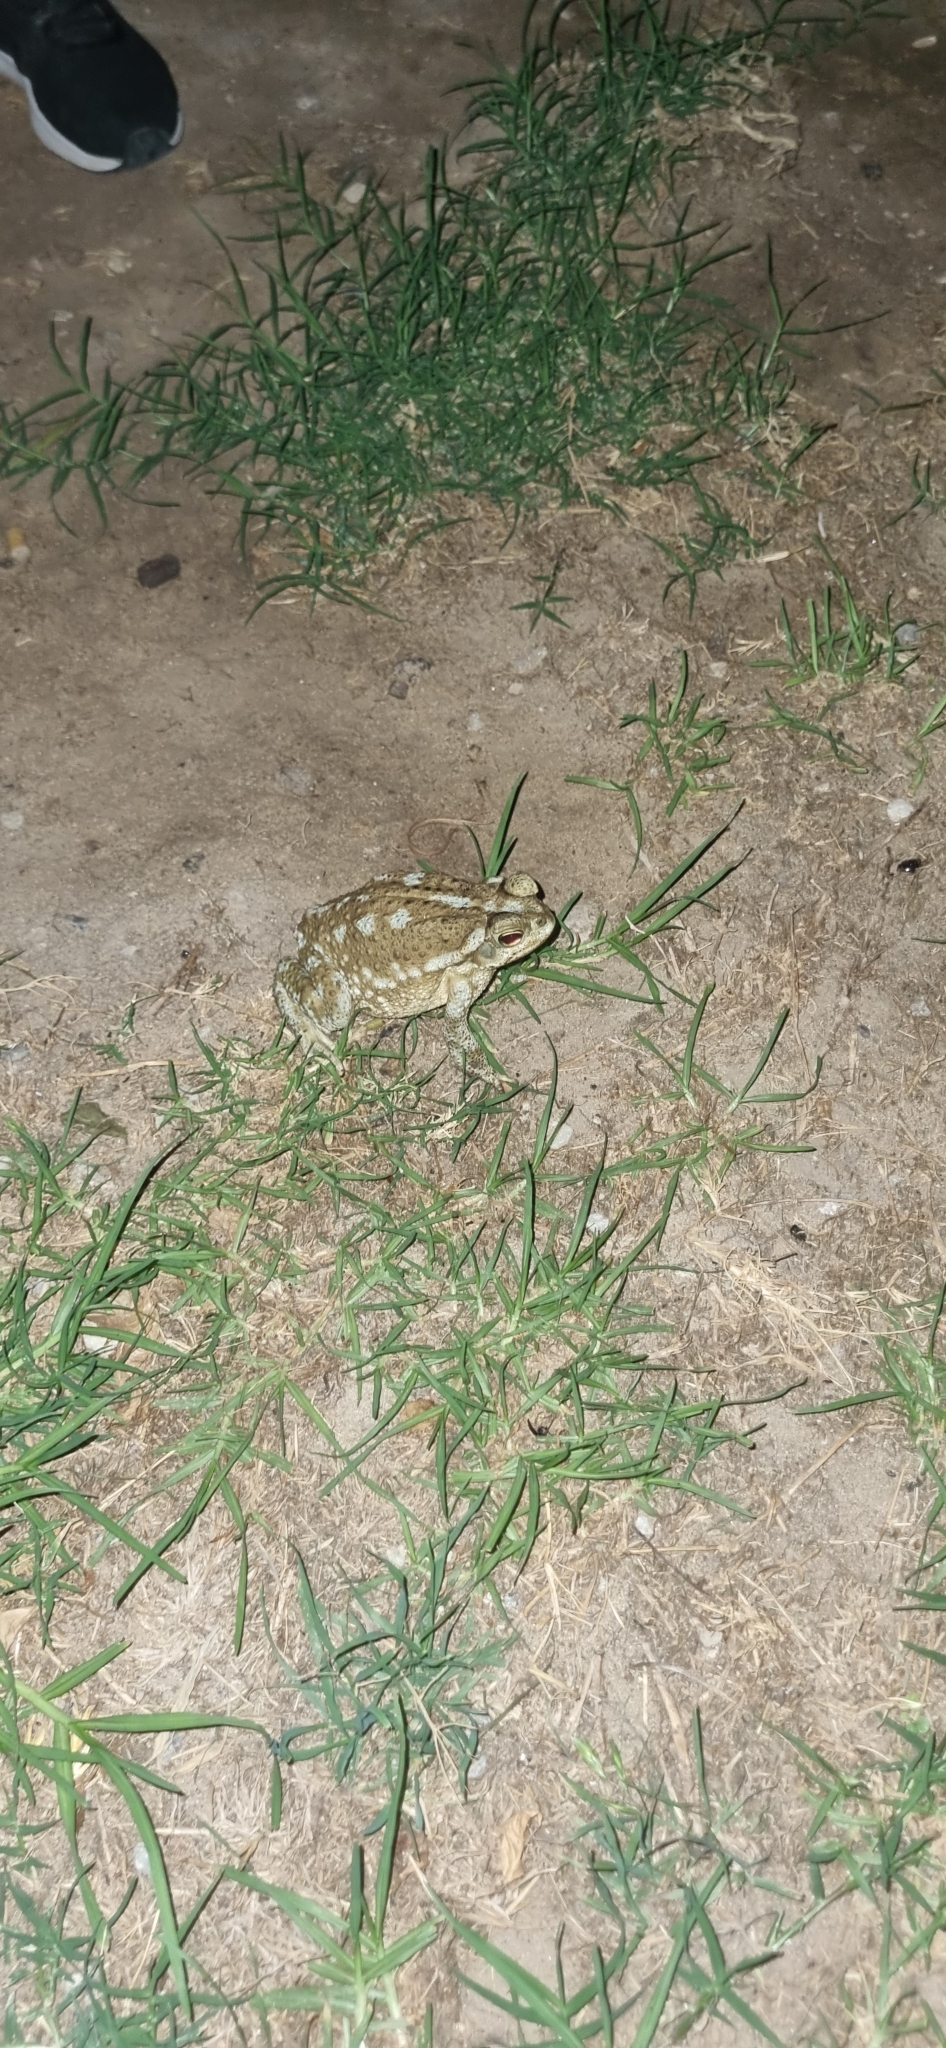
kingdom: Animalia
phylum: Chordata
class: Amphibia
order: Anura
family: Bufonidae
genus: Rhinella
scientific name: Rhinella arenarum
